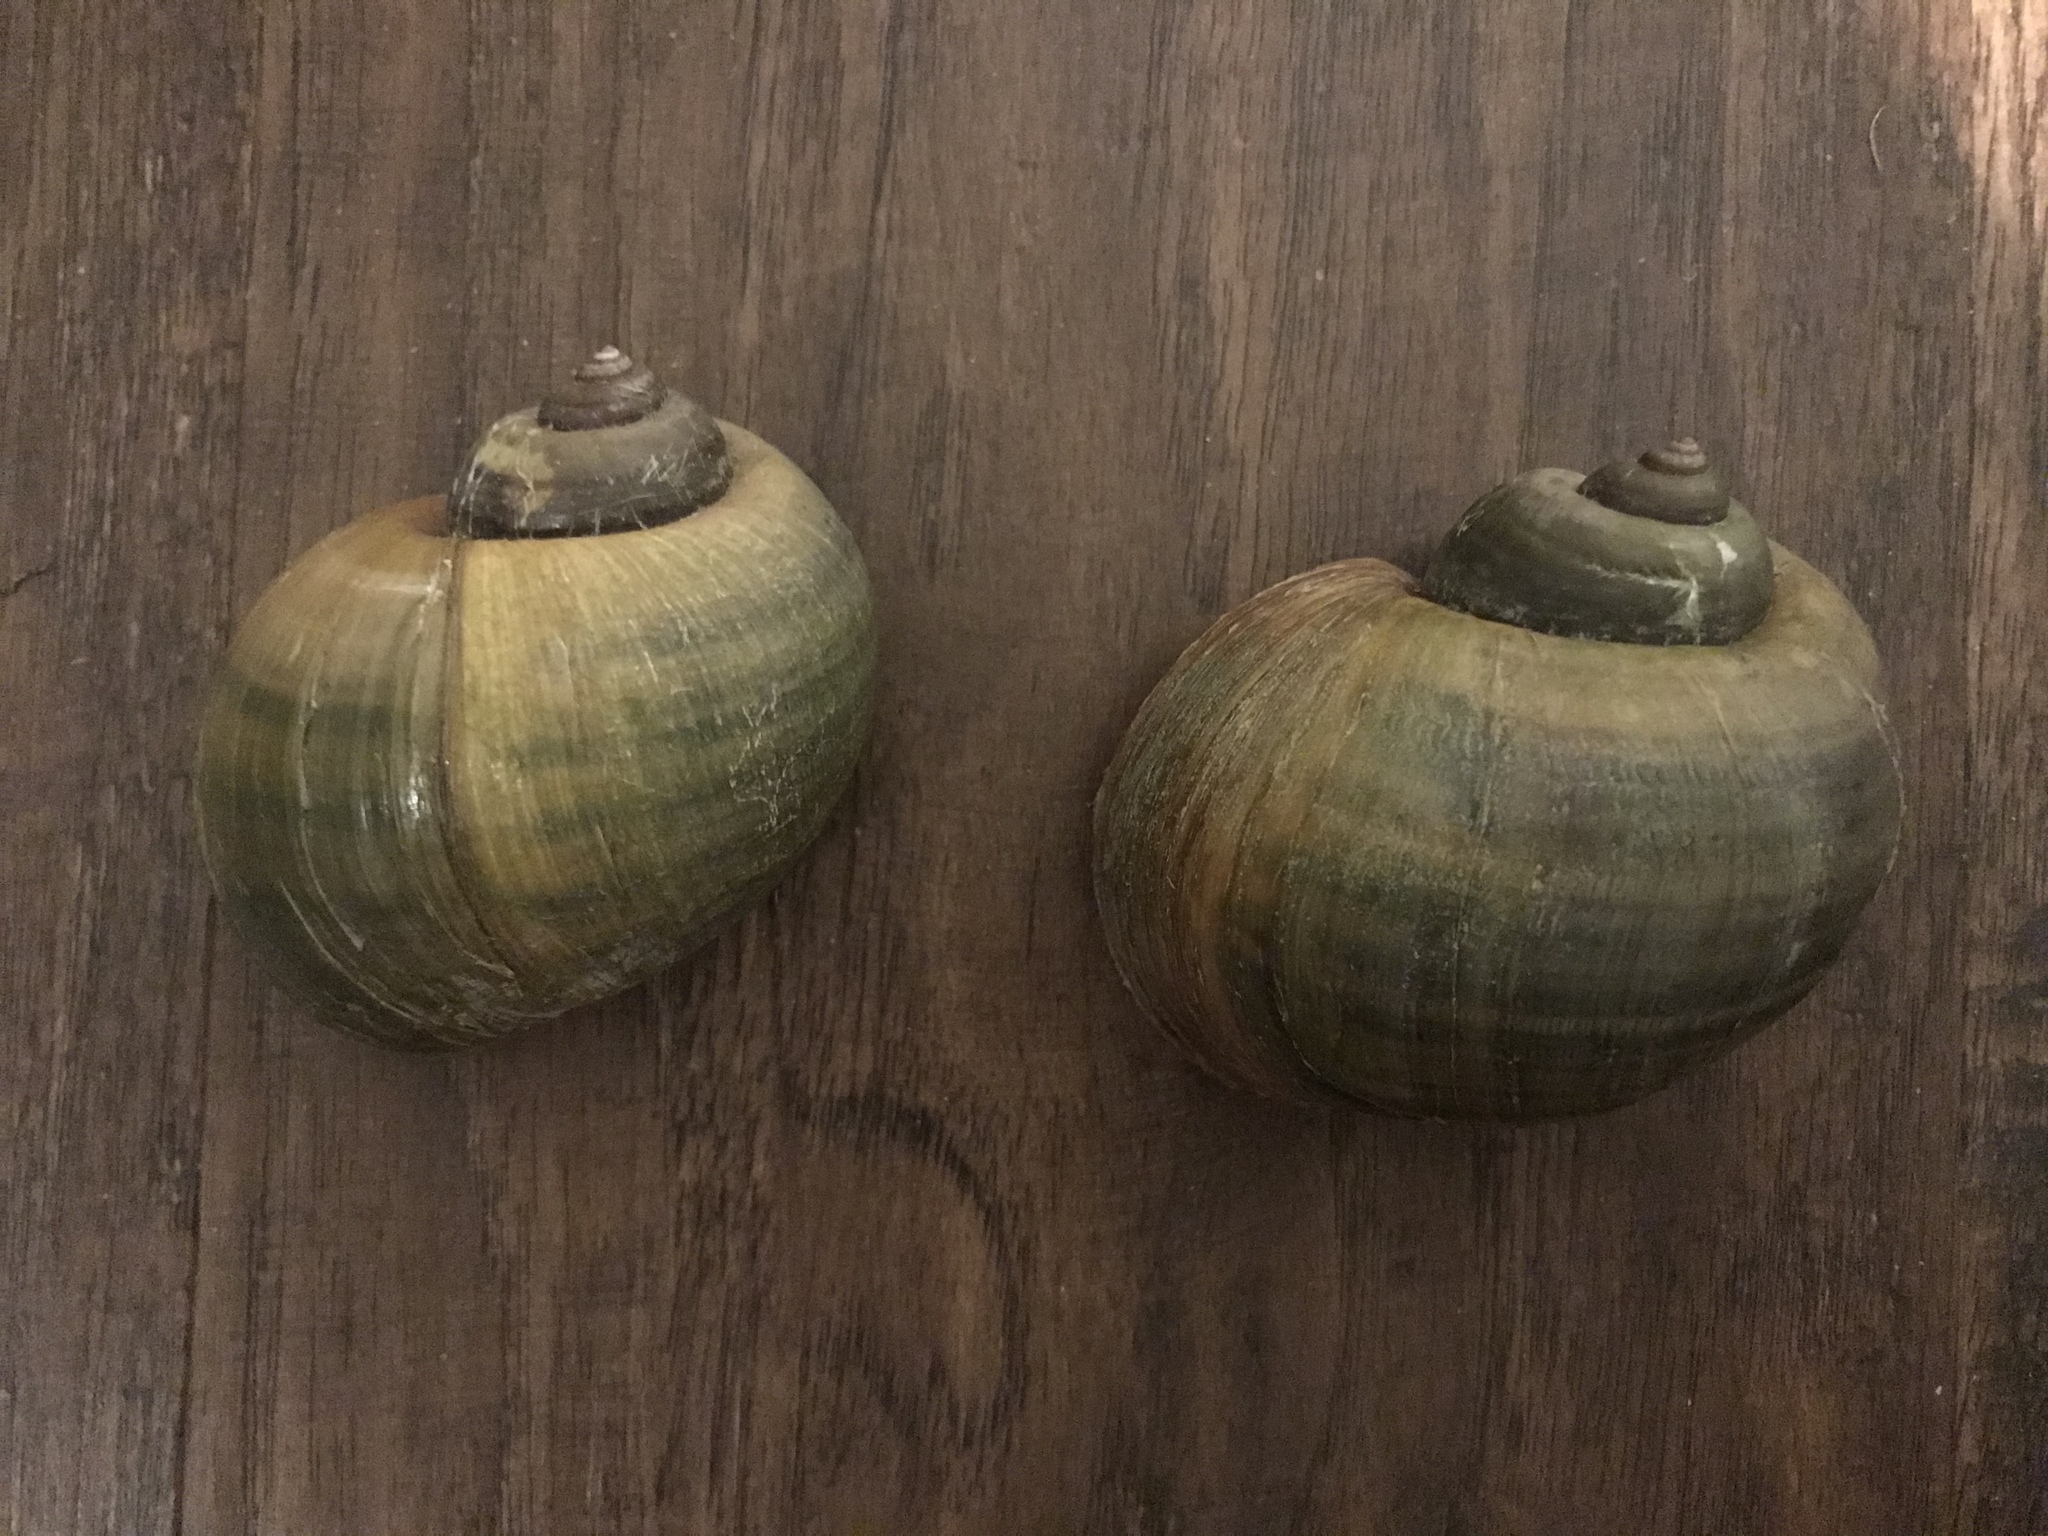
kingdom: Animalia
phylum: Mollusca
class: Gastropoda
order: Architaenioglossa
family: Ampullariidae
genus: Pomacea
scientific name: Pomacea maculata
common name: Giant applesnail
